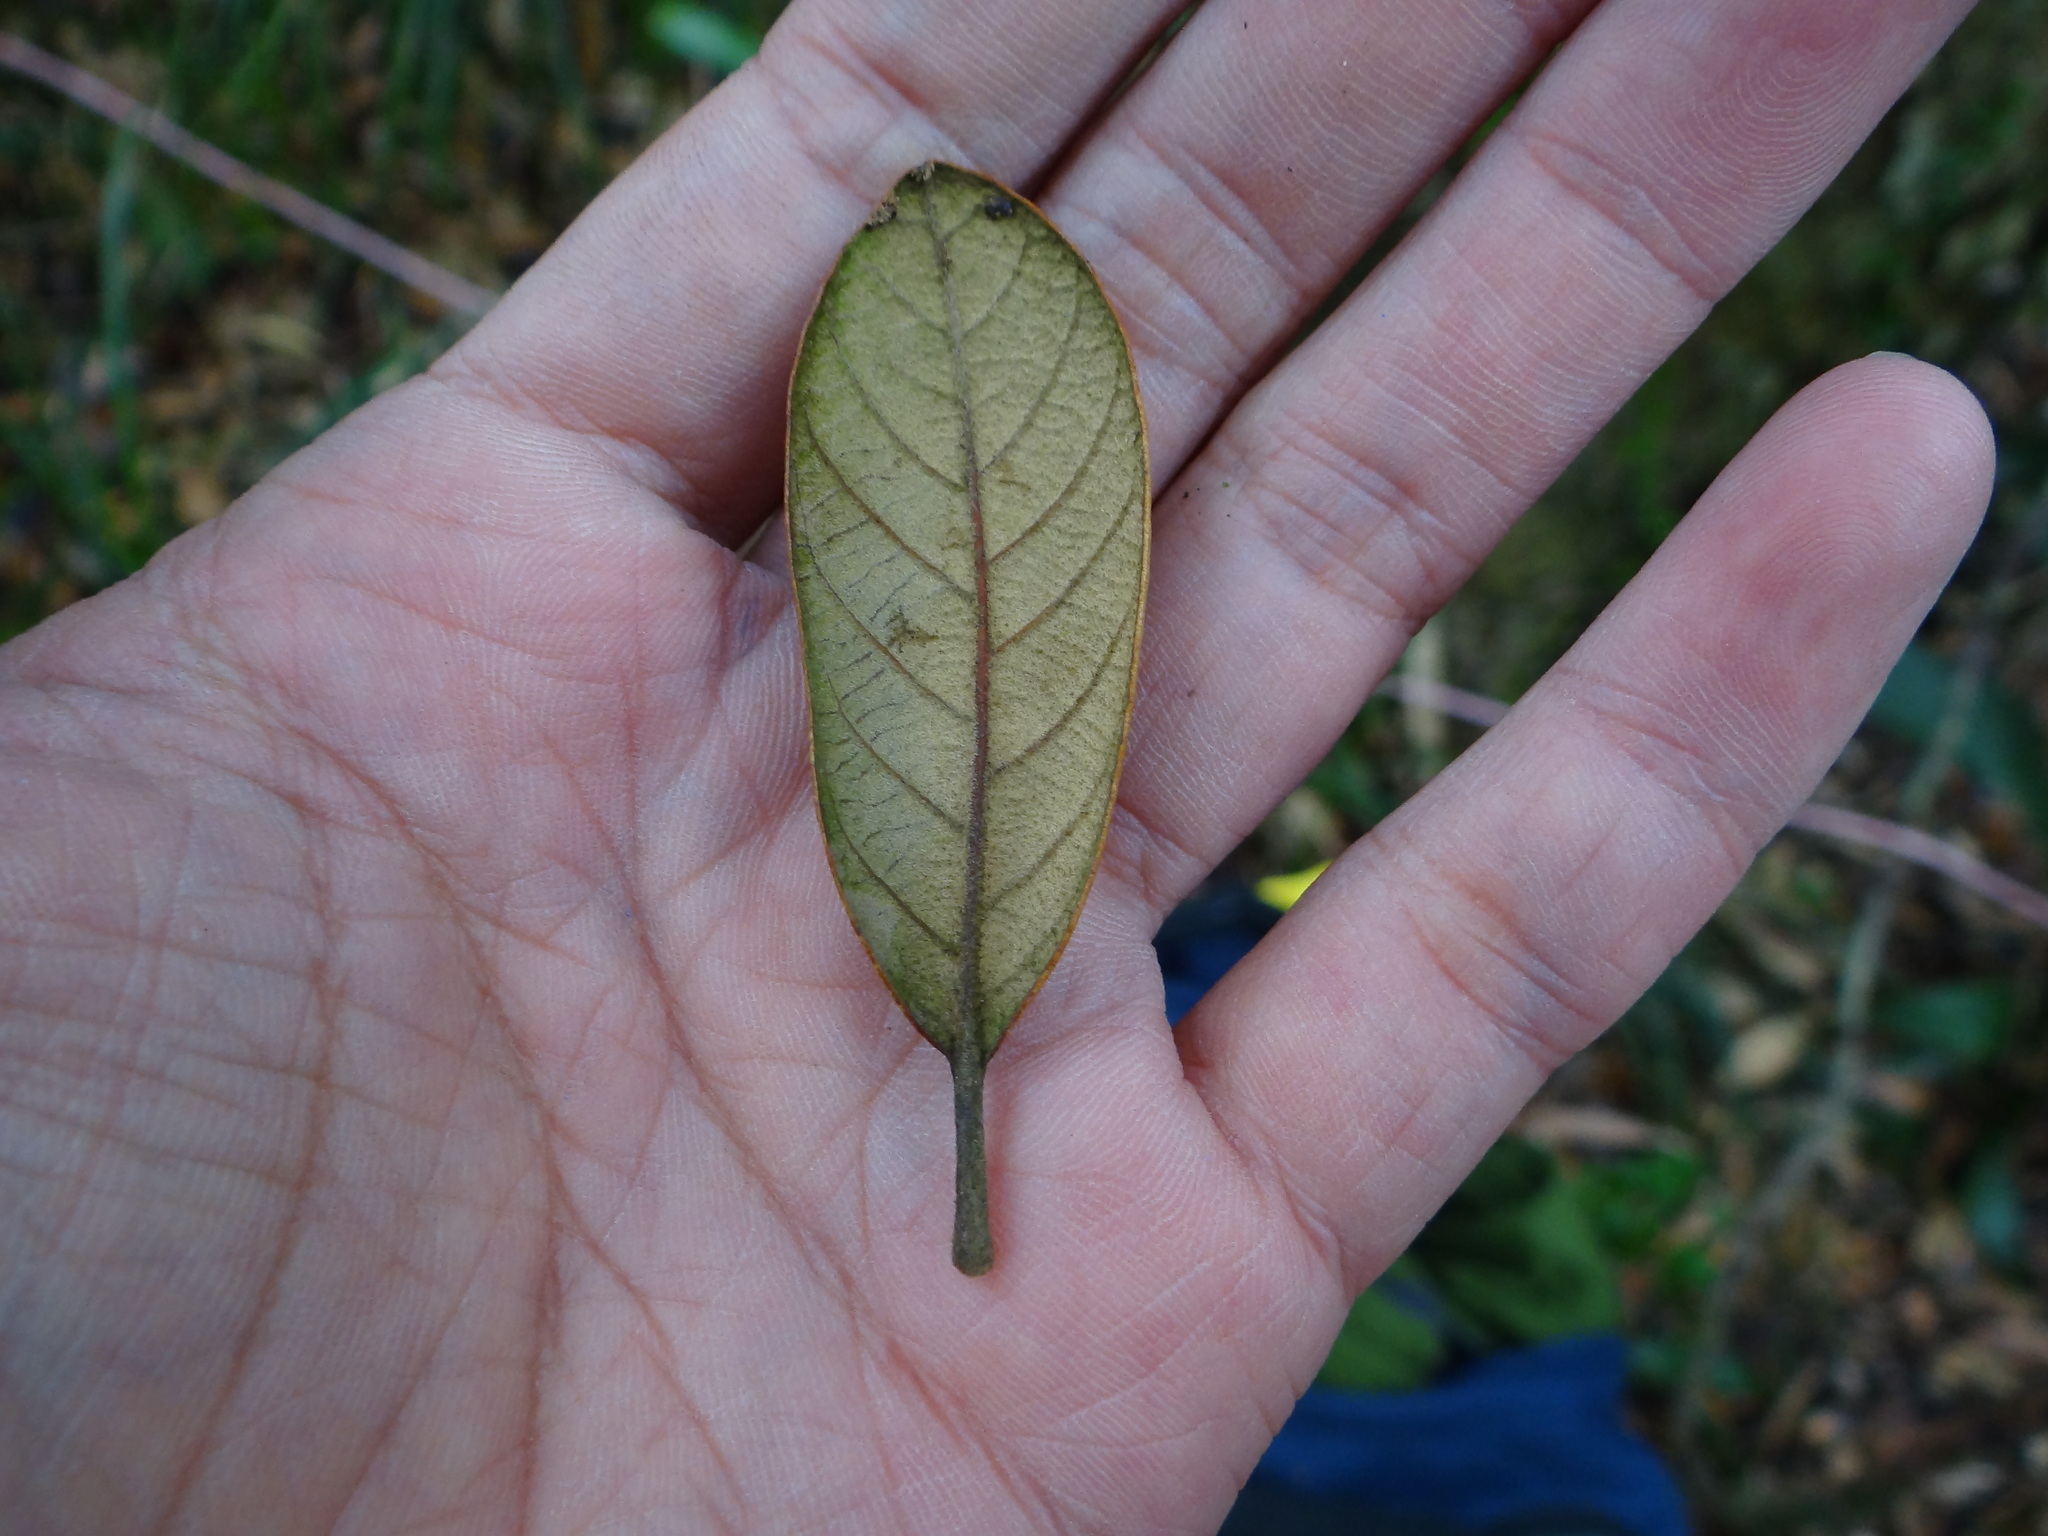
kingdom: Plantae
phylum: Tracheophyta
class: Magnoliopsida
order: Fagales
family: Fagaceae
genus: Quercus
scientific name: Quercus championii
